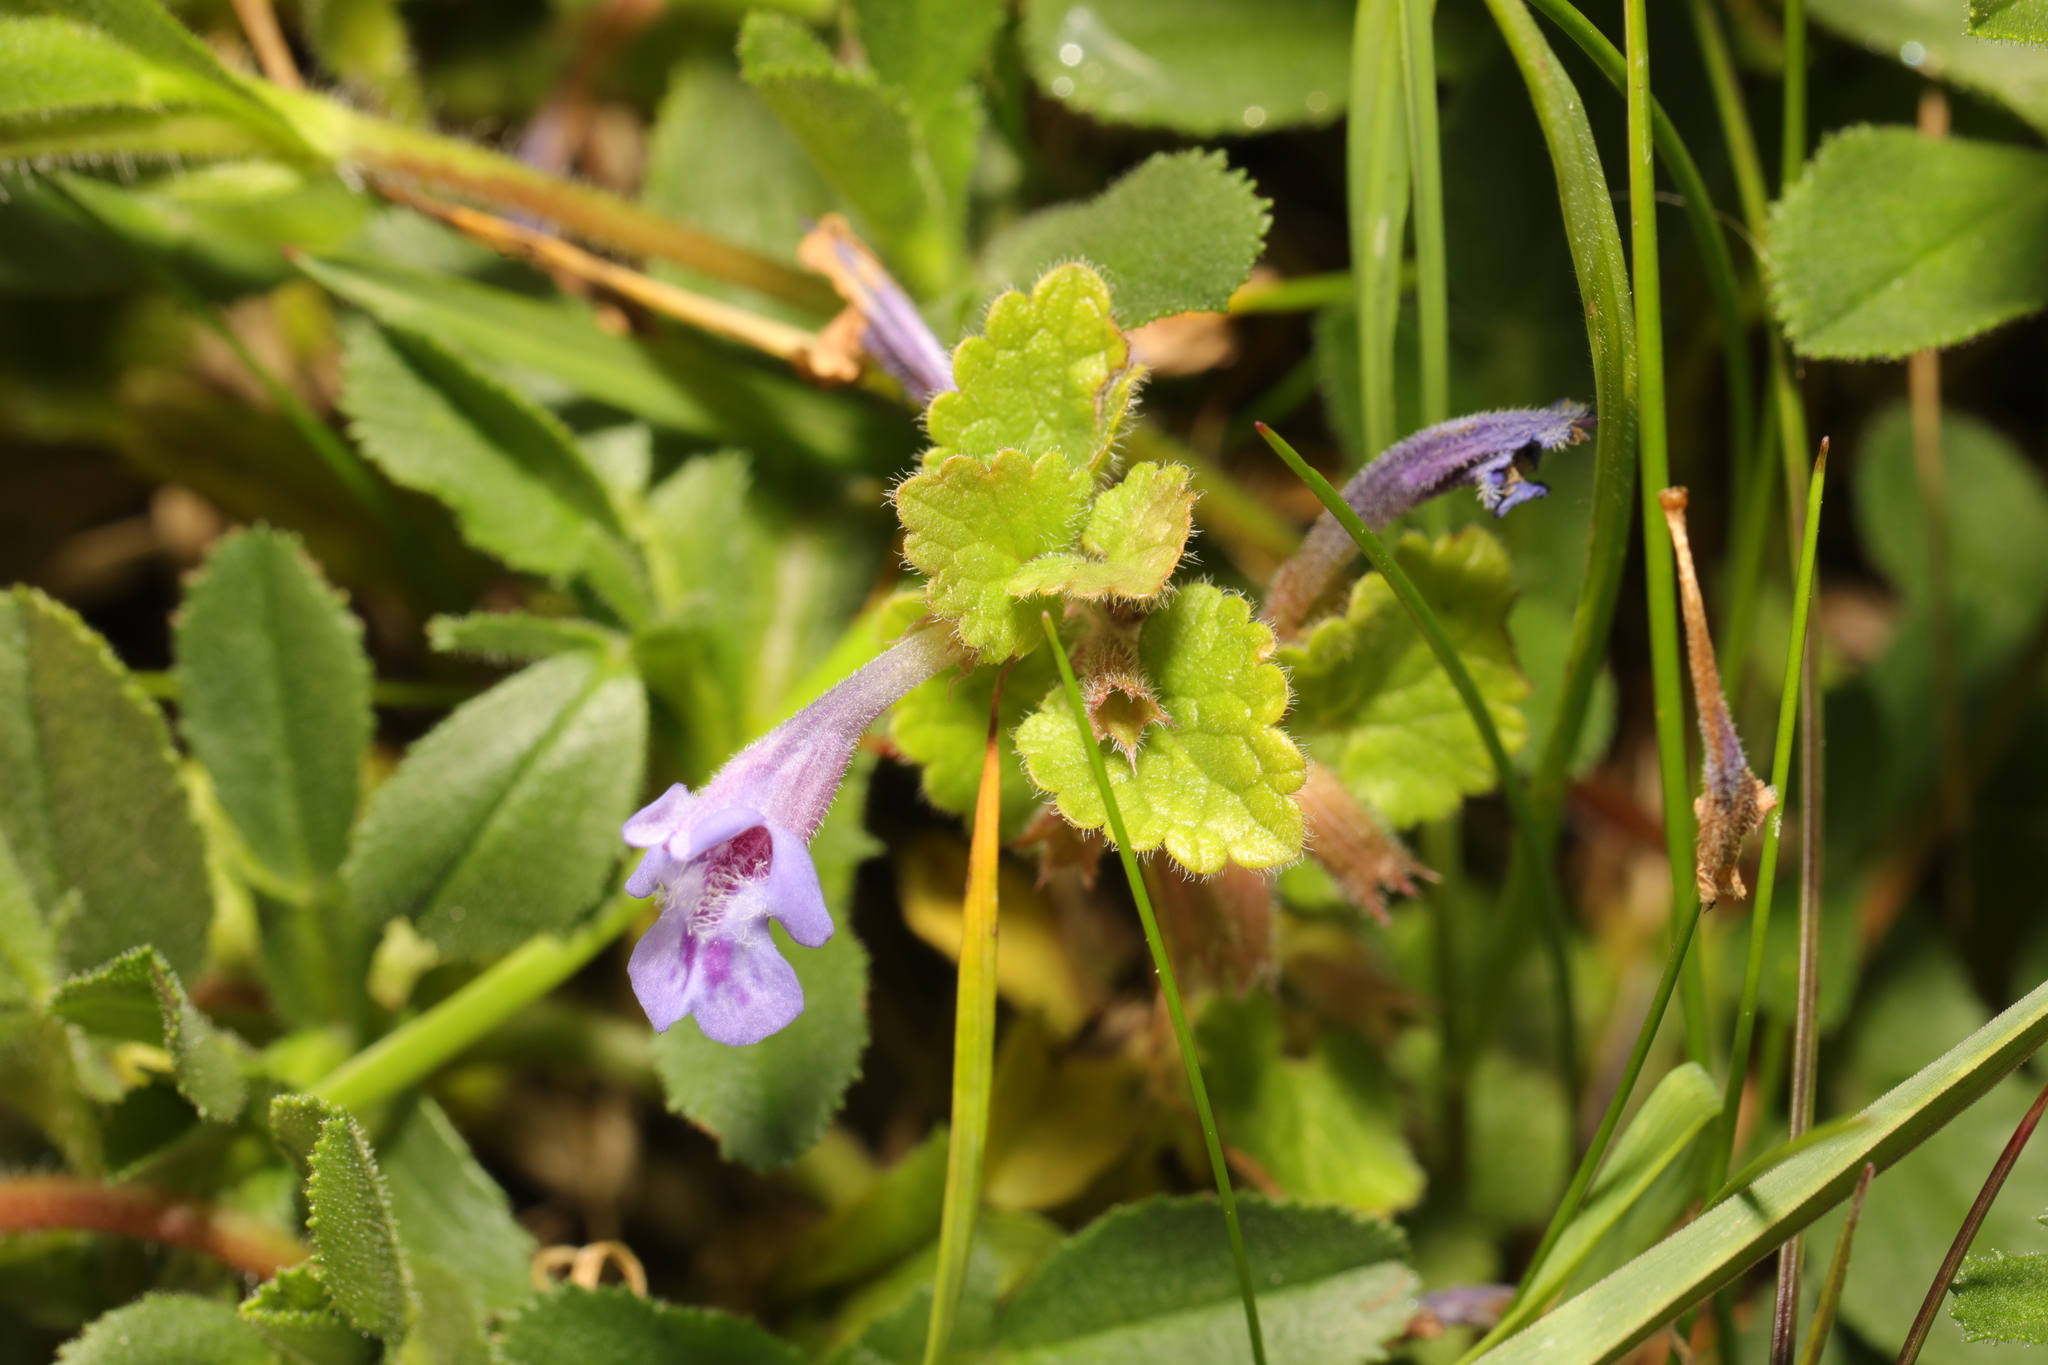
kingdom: Plantae
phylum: Tracheophyta
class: Magnoliopsida
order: Lamiales
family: Lamiaceae
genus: Glechoma
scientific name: Glechoma hederacea
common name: Ground ivy
